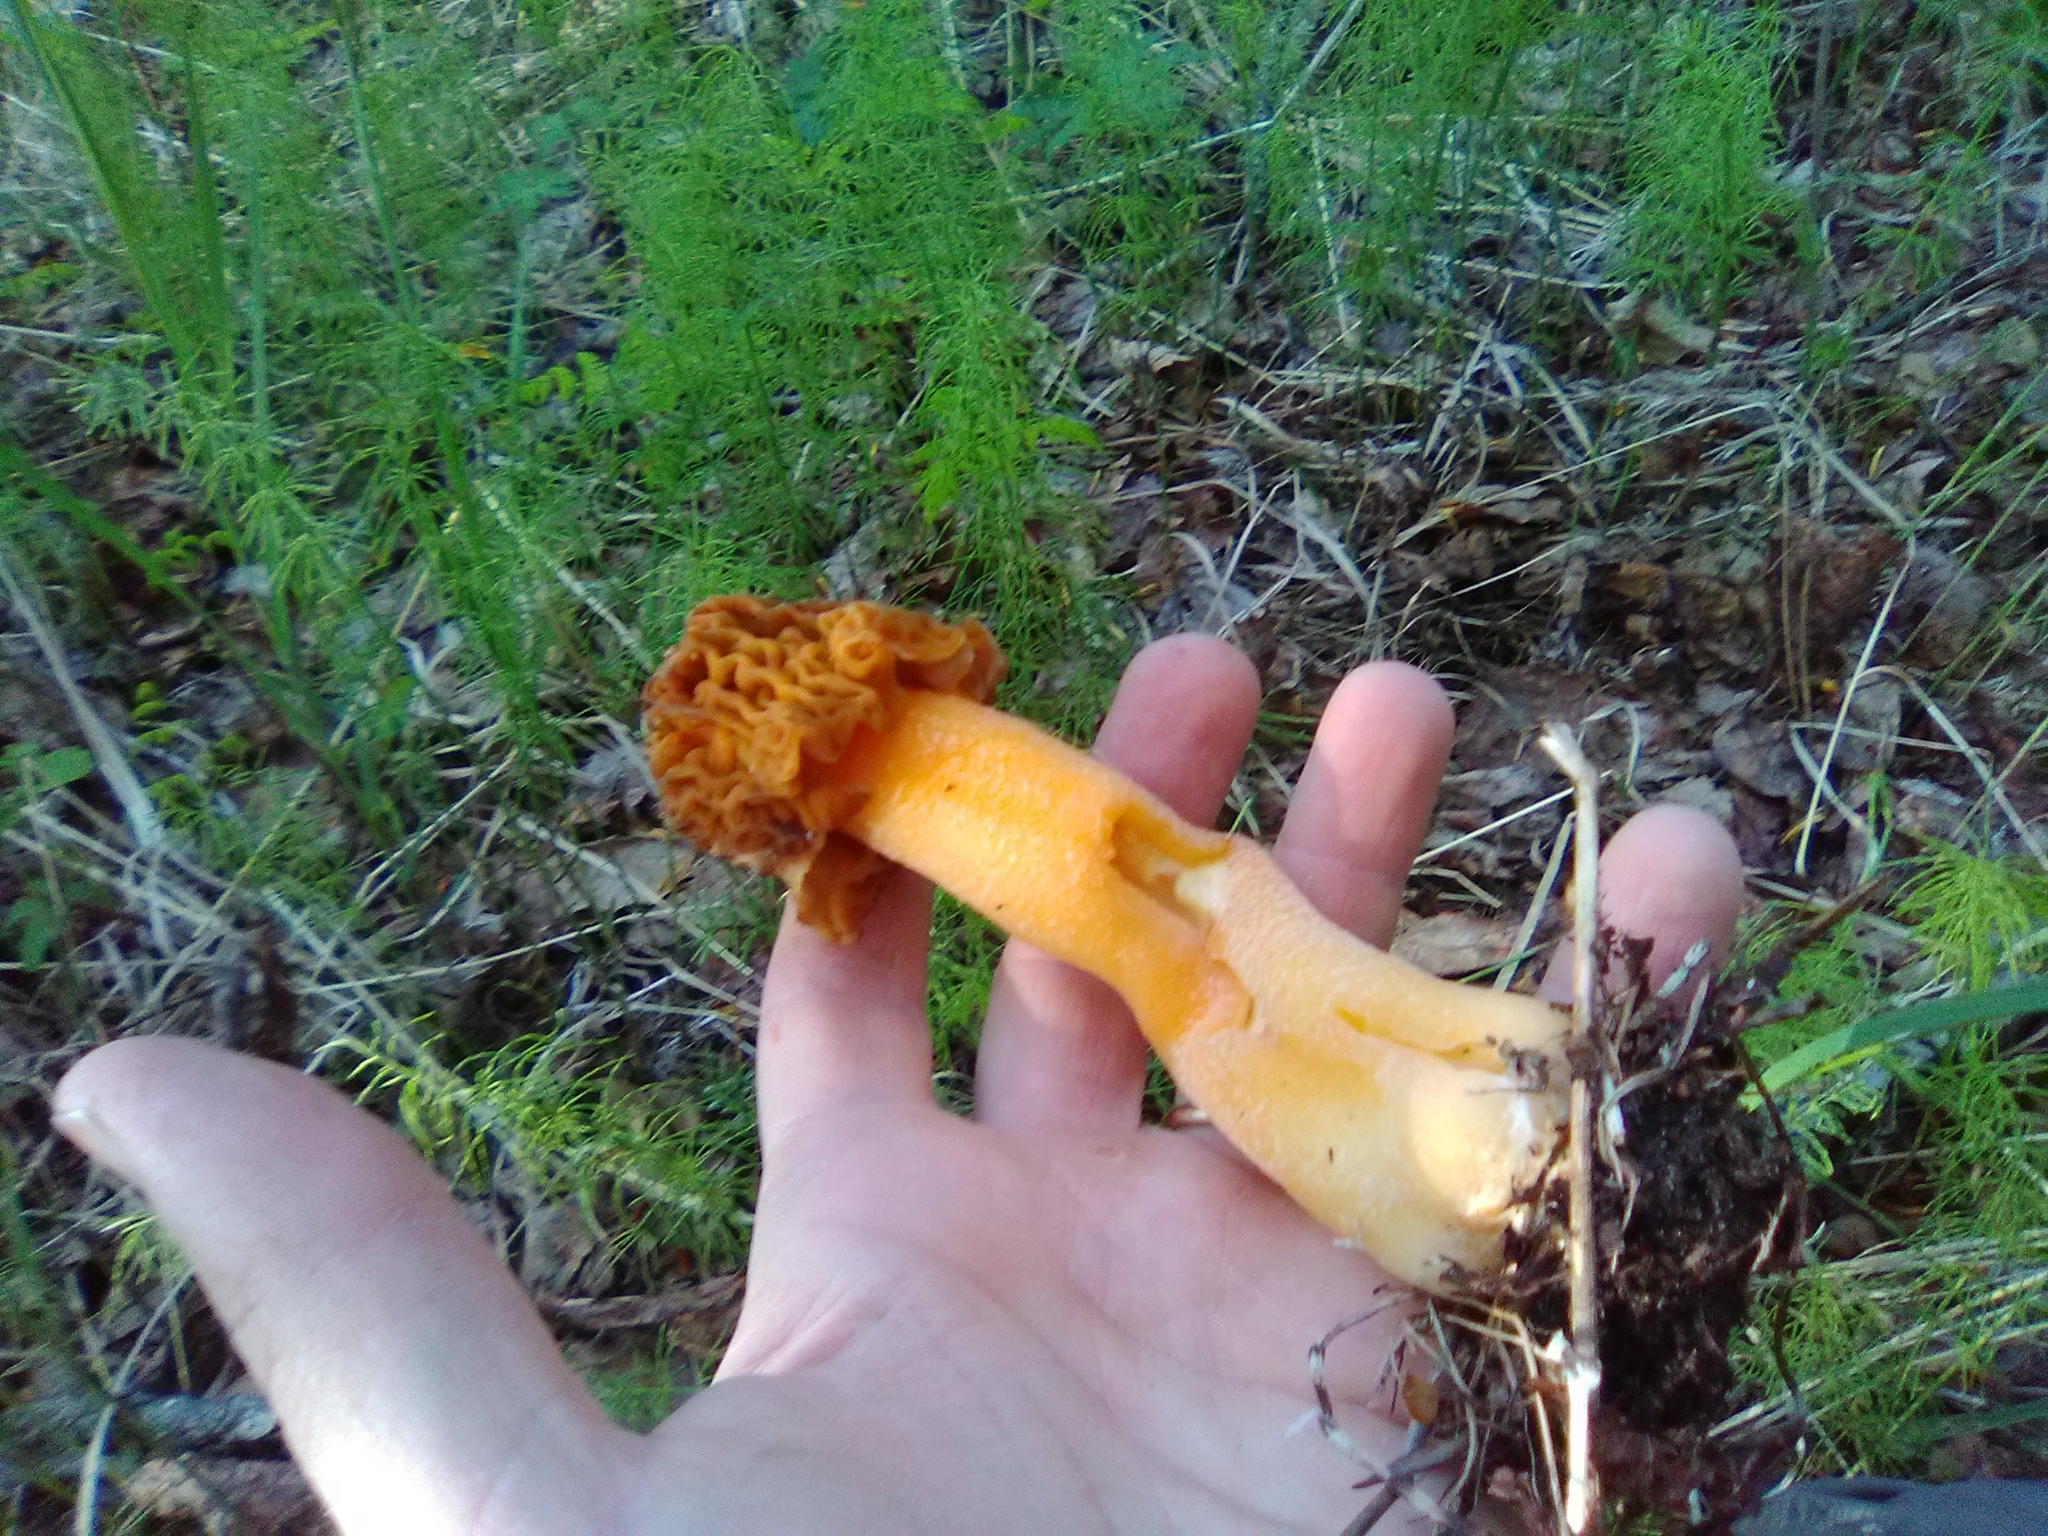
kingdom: Fungi
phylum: Ascomycota
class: Pezizomycetes
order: Pezizales
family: Morchellaceae
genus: Verpa
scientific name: Verpa bohemica
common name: Wrinkled thimble morel
